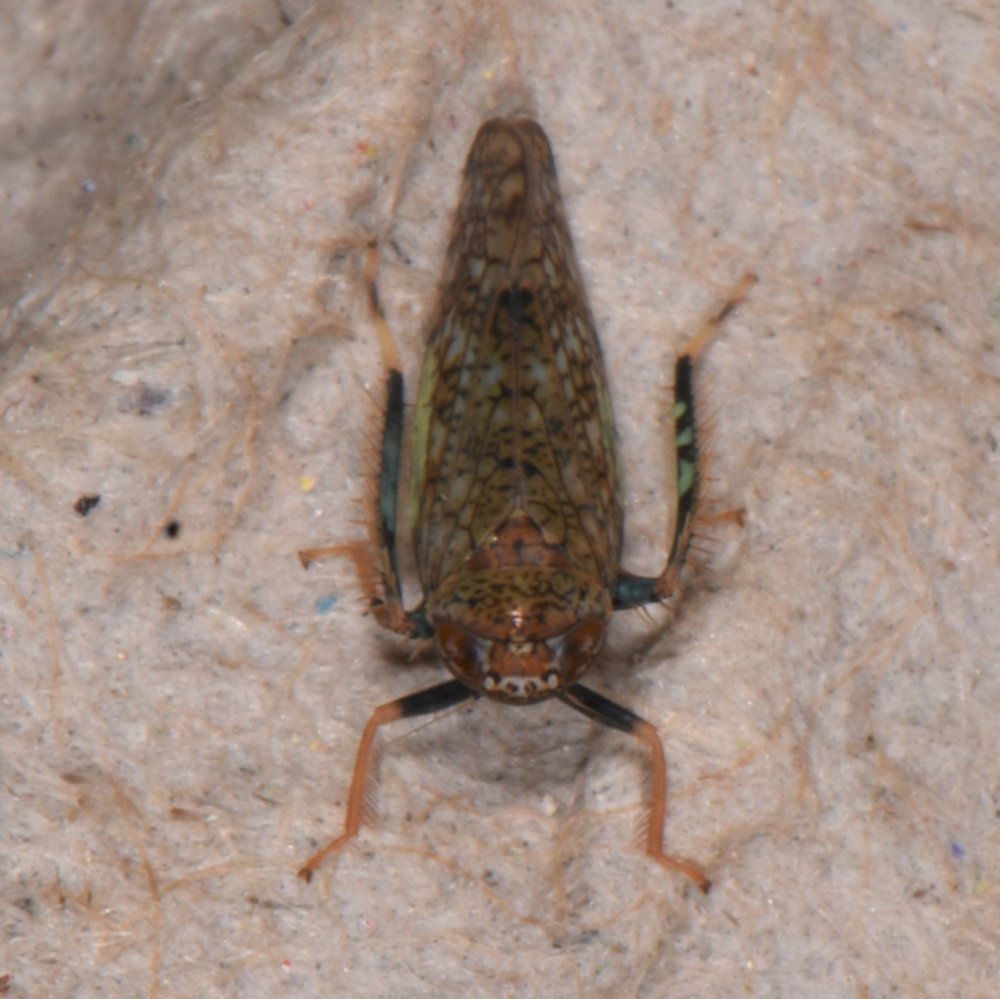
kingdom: Animalia
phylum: Arthropoda
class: Insecta
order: Hemiptera
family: Cicadellidae
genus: Orientus
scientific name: Orientus ishidae
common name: Japanese leafhopper
